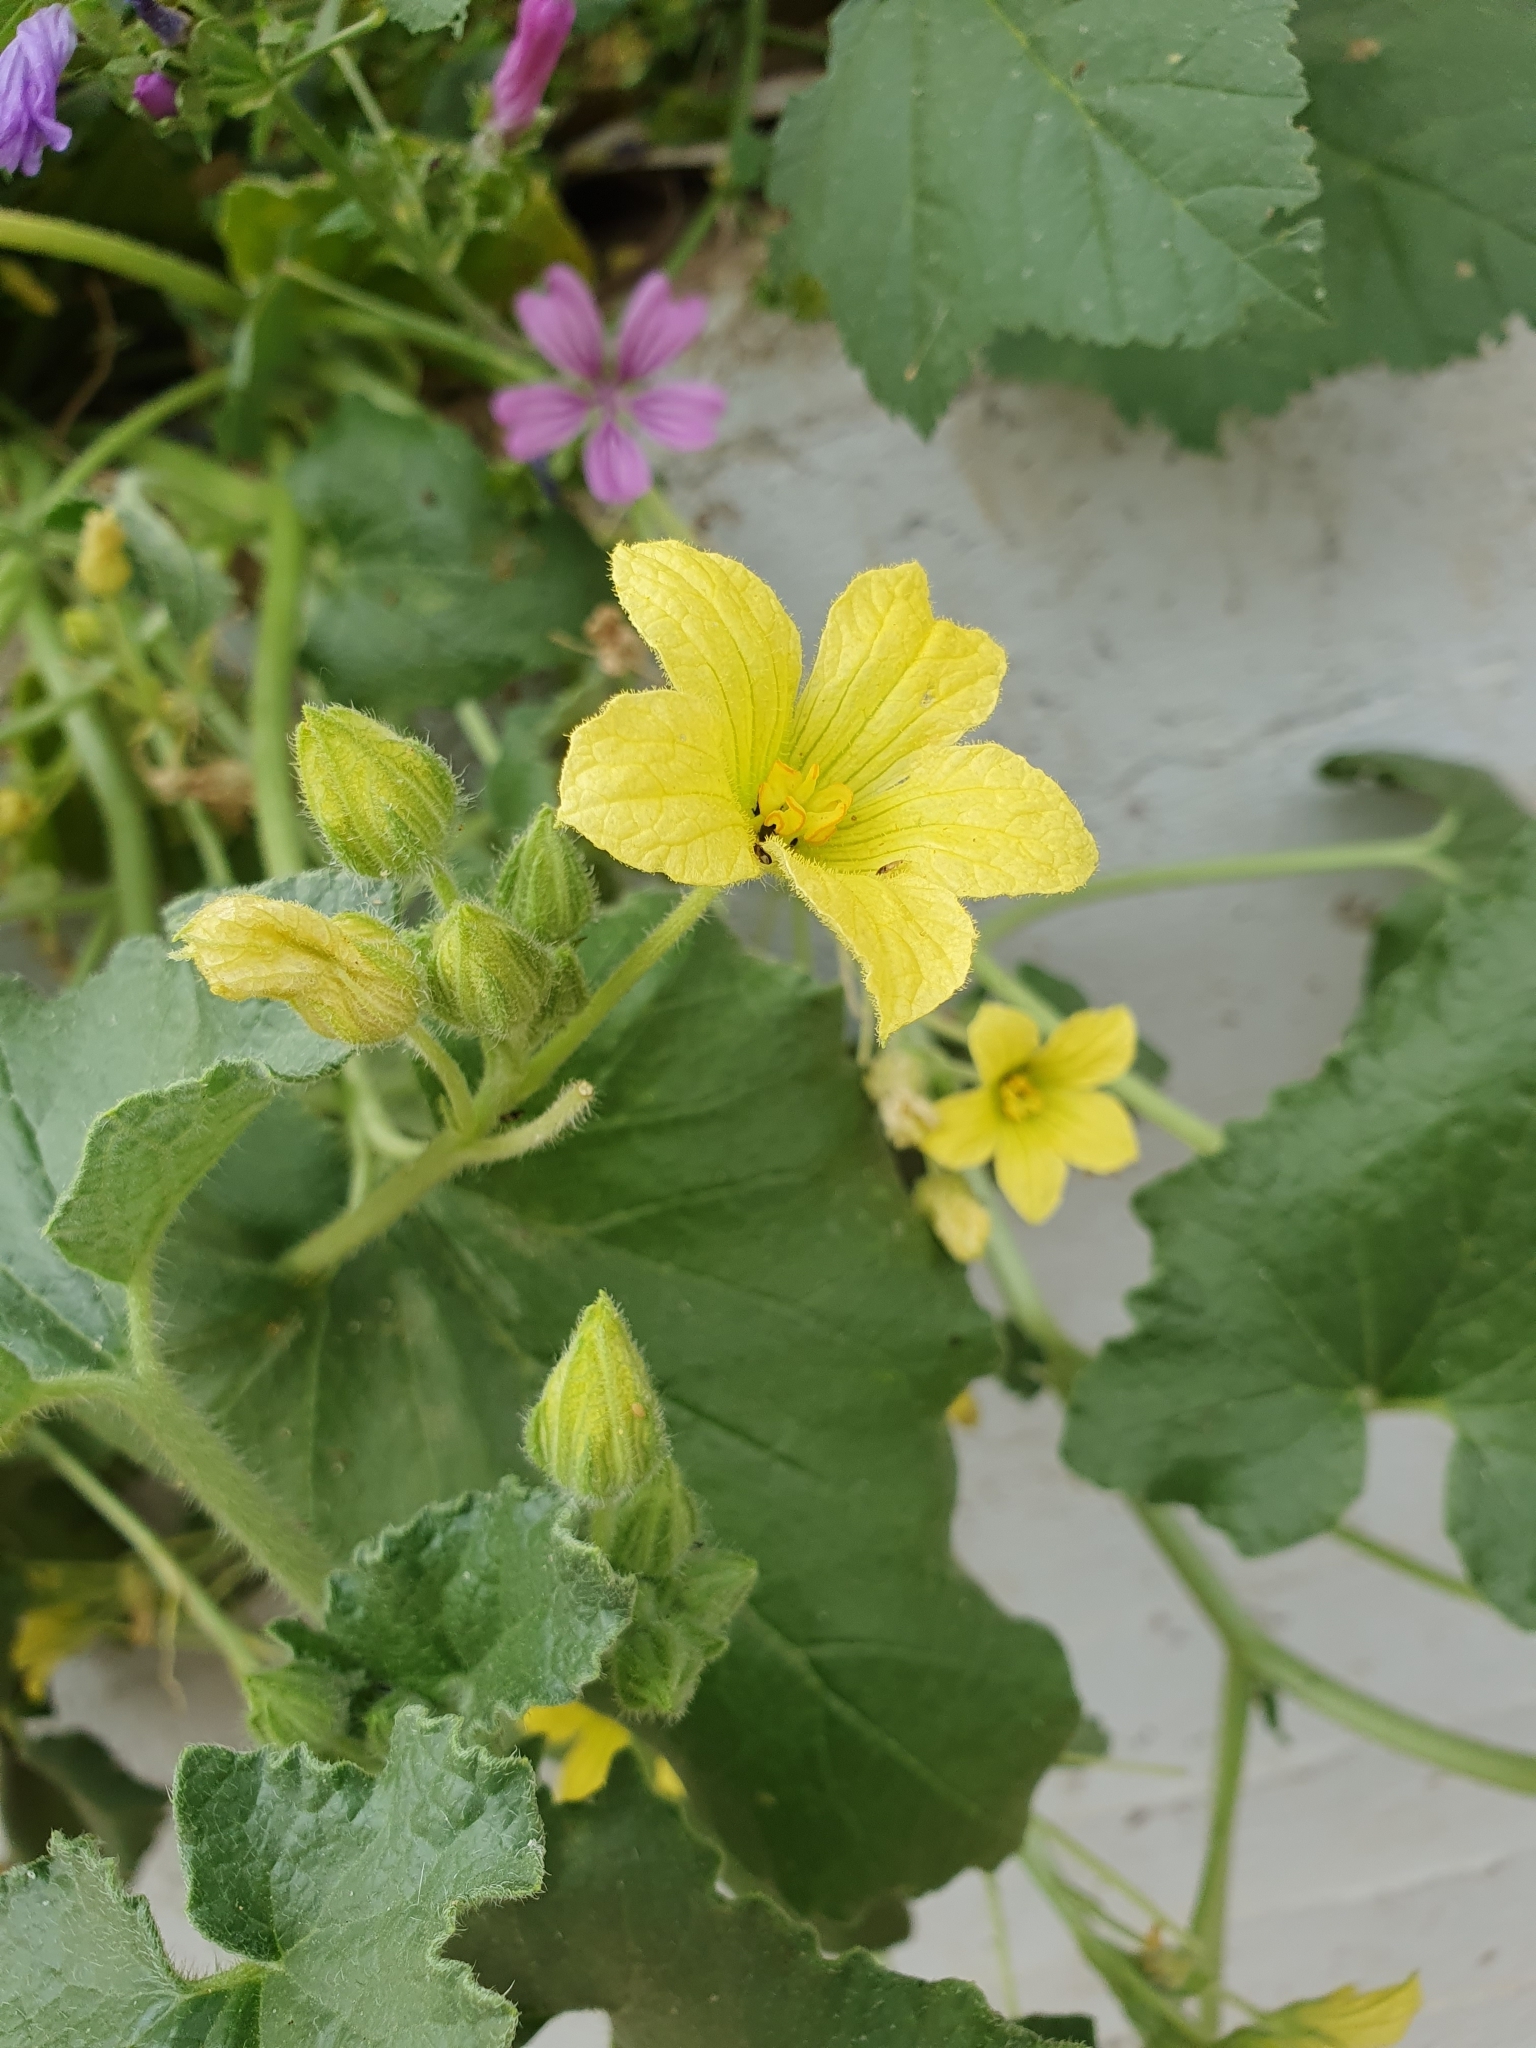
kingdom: Plantae
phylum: Tracheophyta
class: Magnoliopsida
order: Cucurbitales
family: Cucurbitaceae
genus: Ecballium
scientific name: Ecballium elaterium
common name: Squirting cucumber
